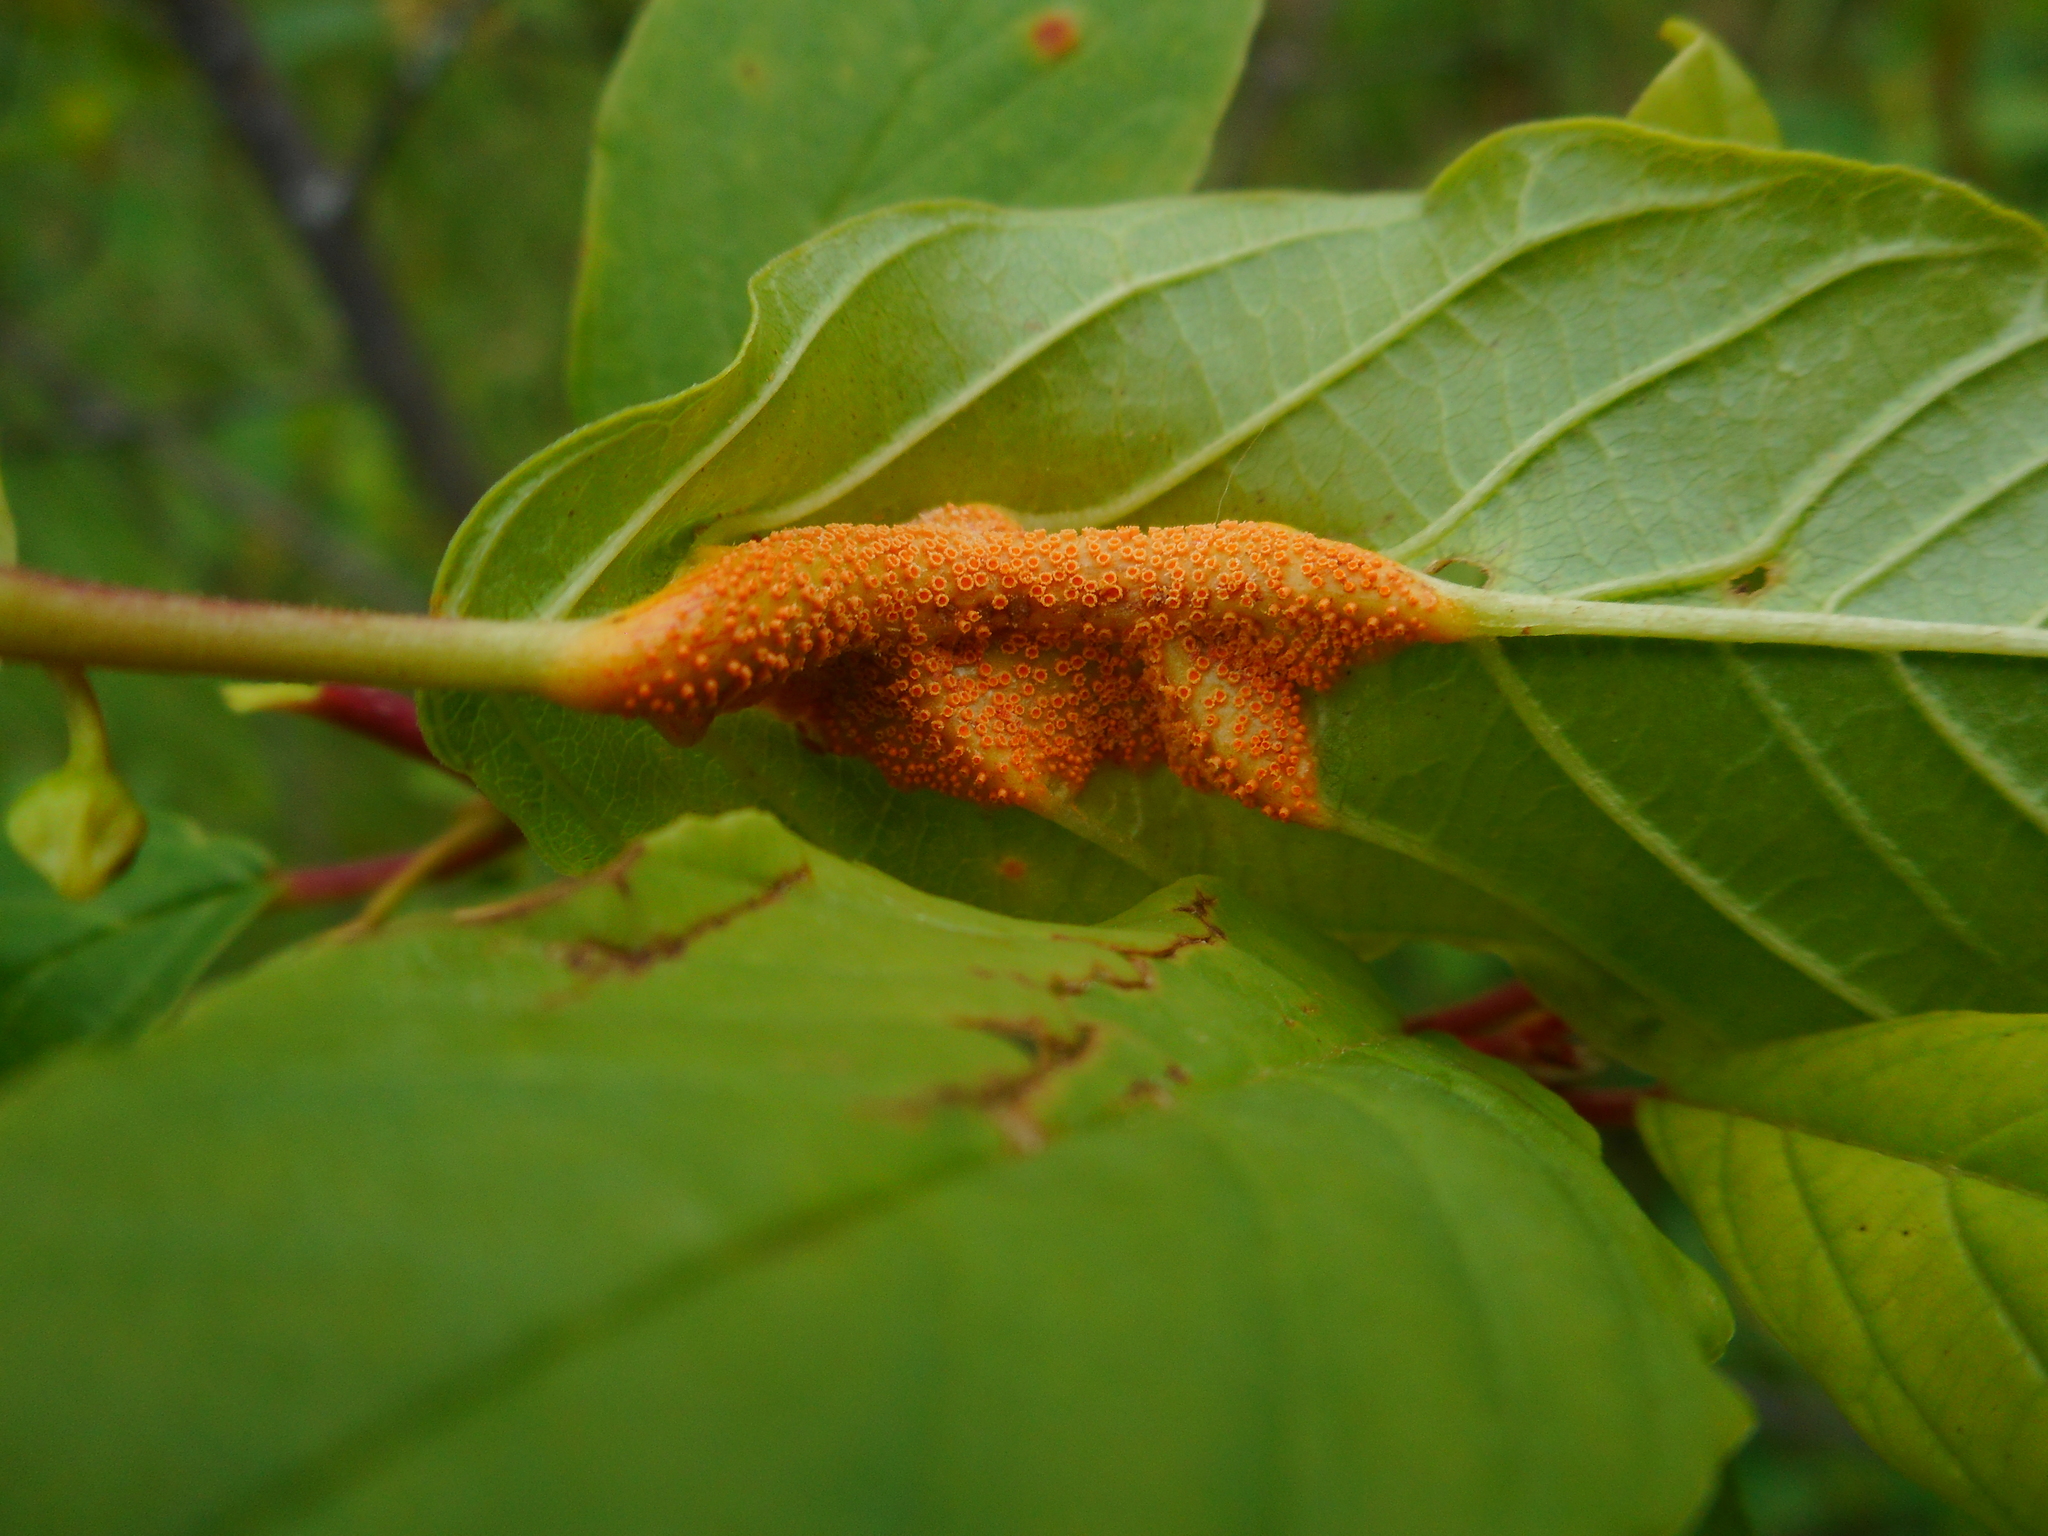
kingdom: Fungi
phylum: Basidiomycota
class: Pucciniomycetes
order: Pucciniales
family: Pucciniaceae
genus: Puccinia
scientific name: Puccinia coronata
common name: Crown rust
